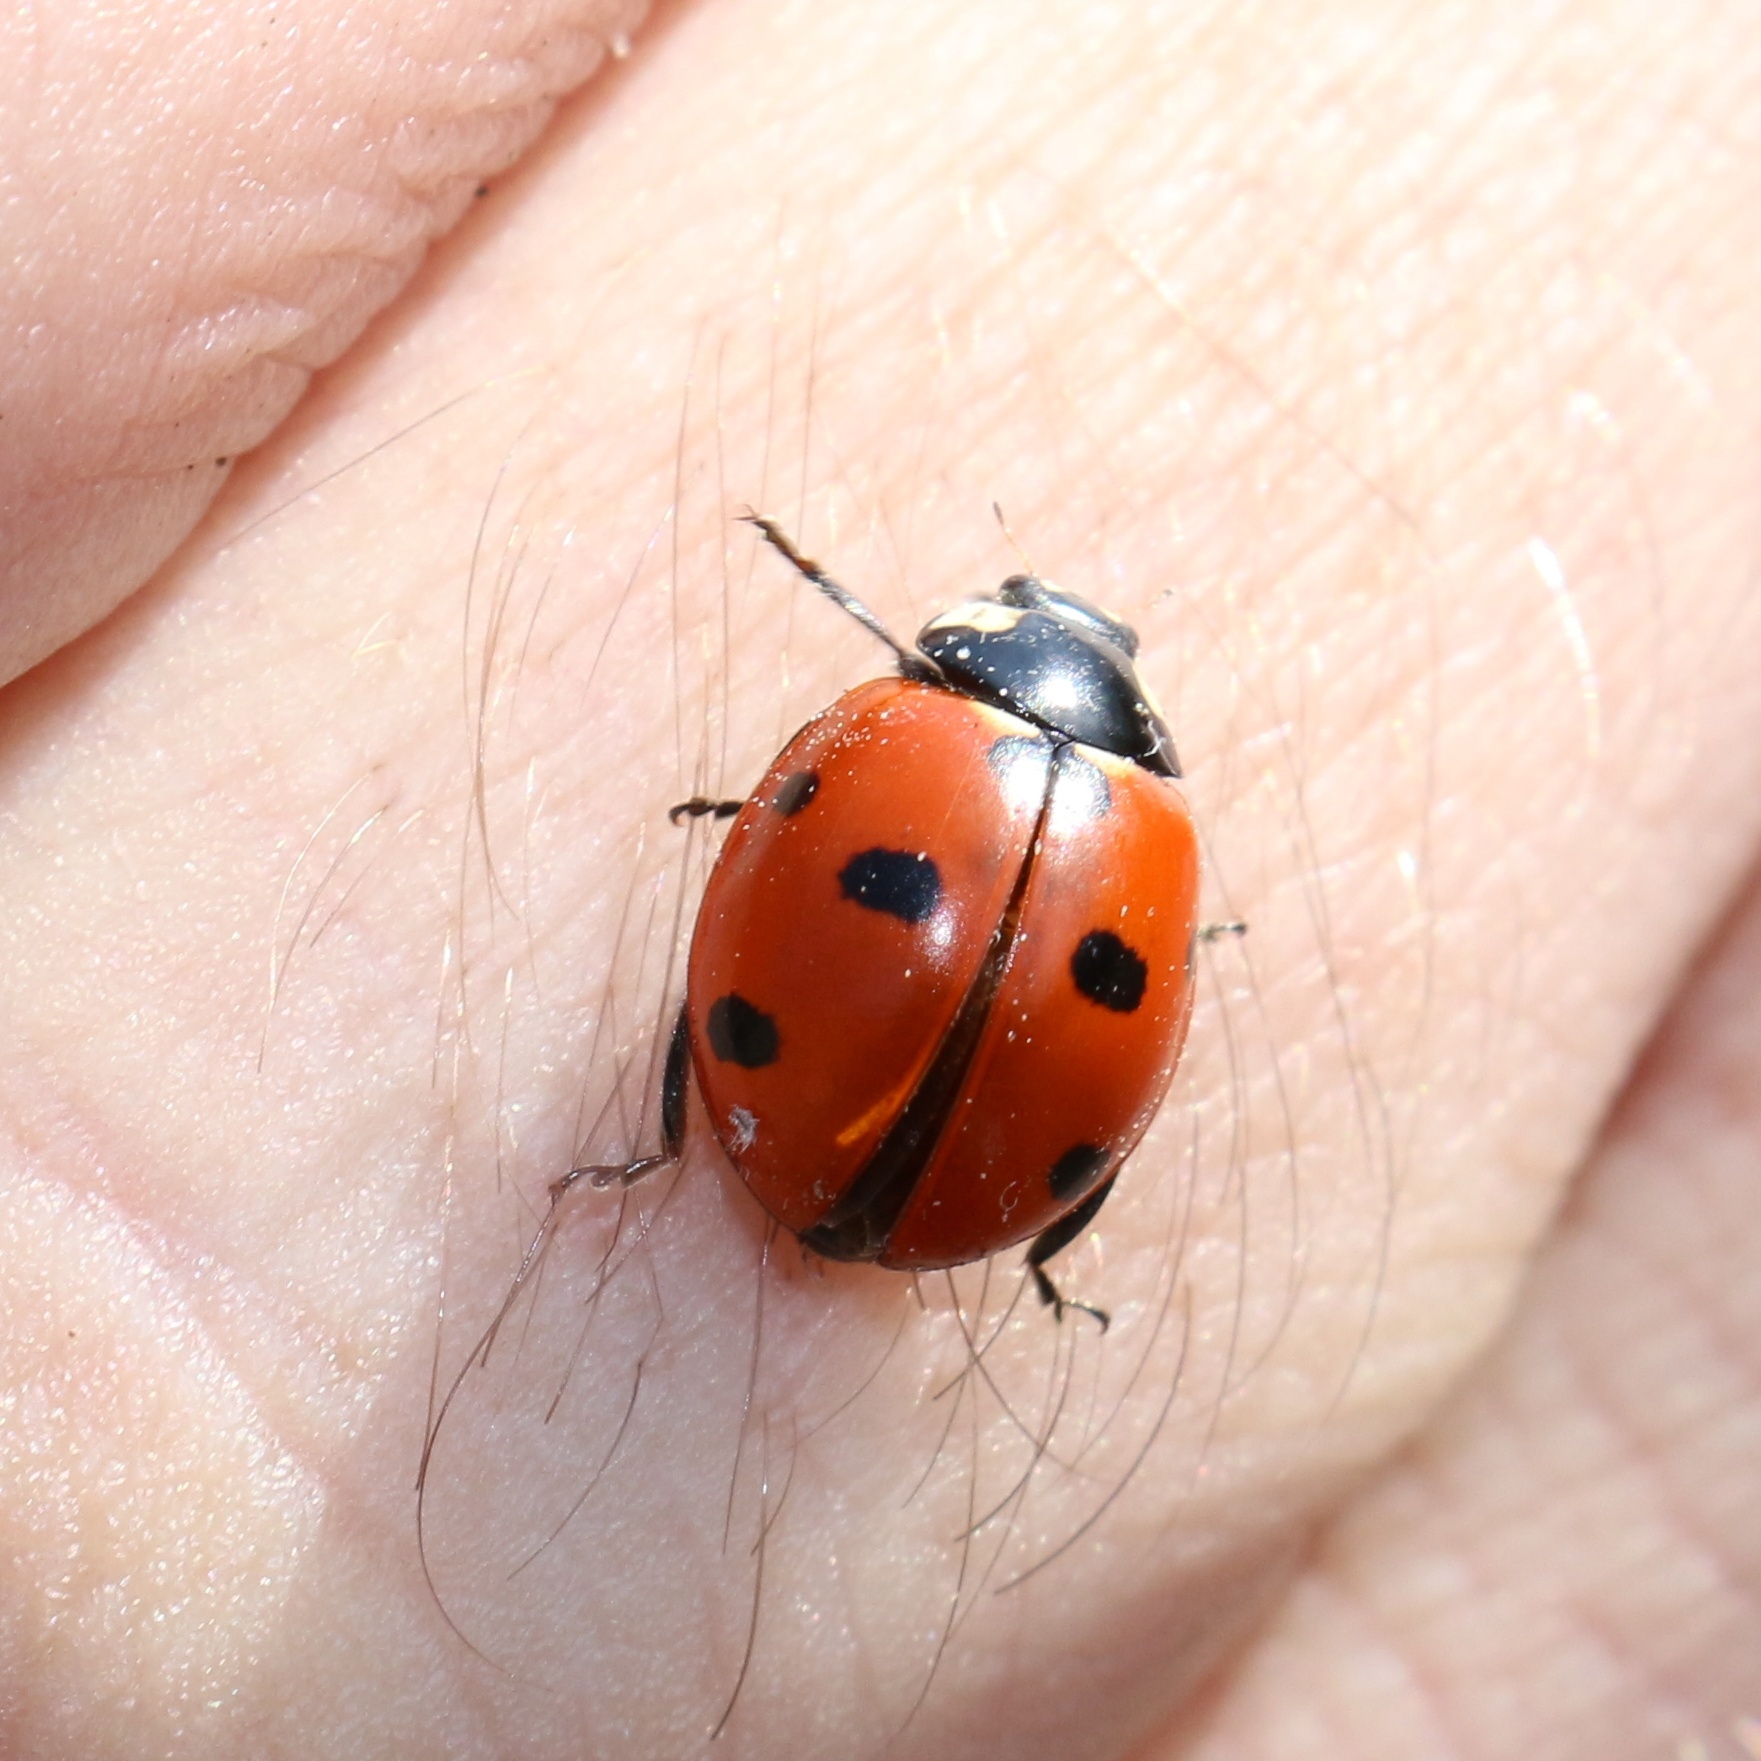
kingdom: Animalia
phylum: Arthropoda
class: Insecta
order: Coleoptera
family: Coccinellidae
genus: Coccinella
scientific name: Coccinella septempunctata
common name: Sevenspotted lady beetle
